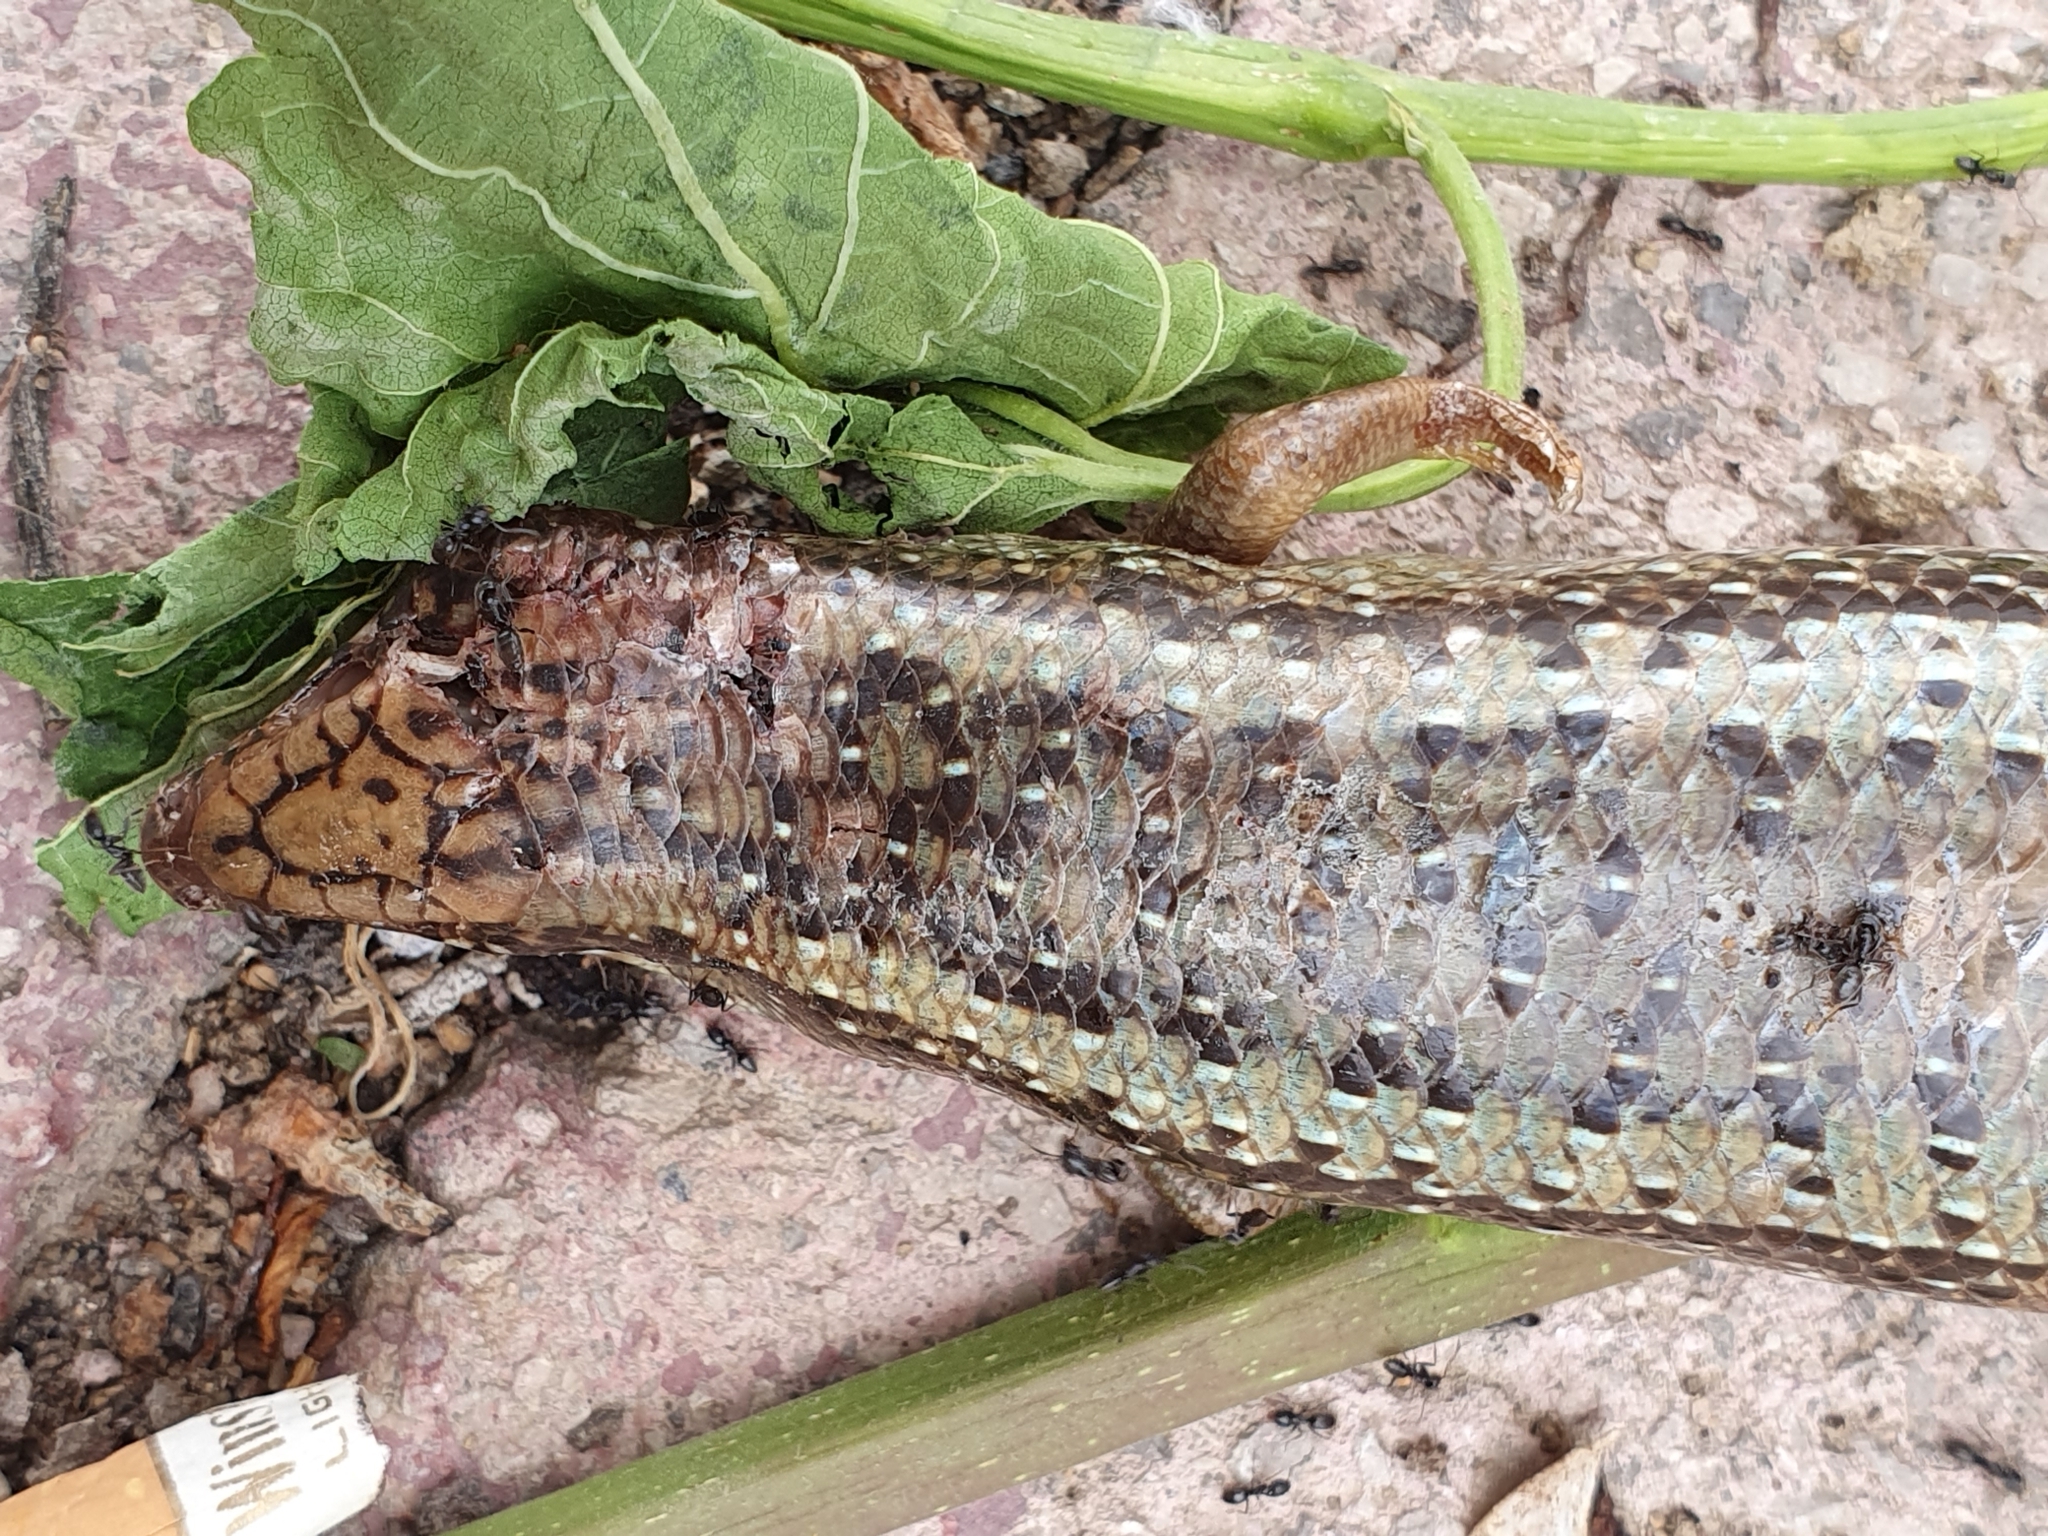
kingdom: Animalia
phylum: Chordata
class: Squamata
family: Scincidae
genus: Chalcides
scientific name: Chalcides ocellatus
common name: Ocellated skink
